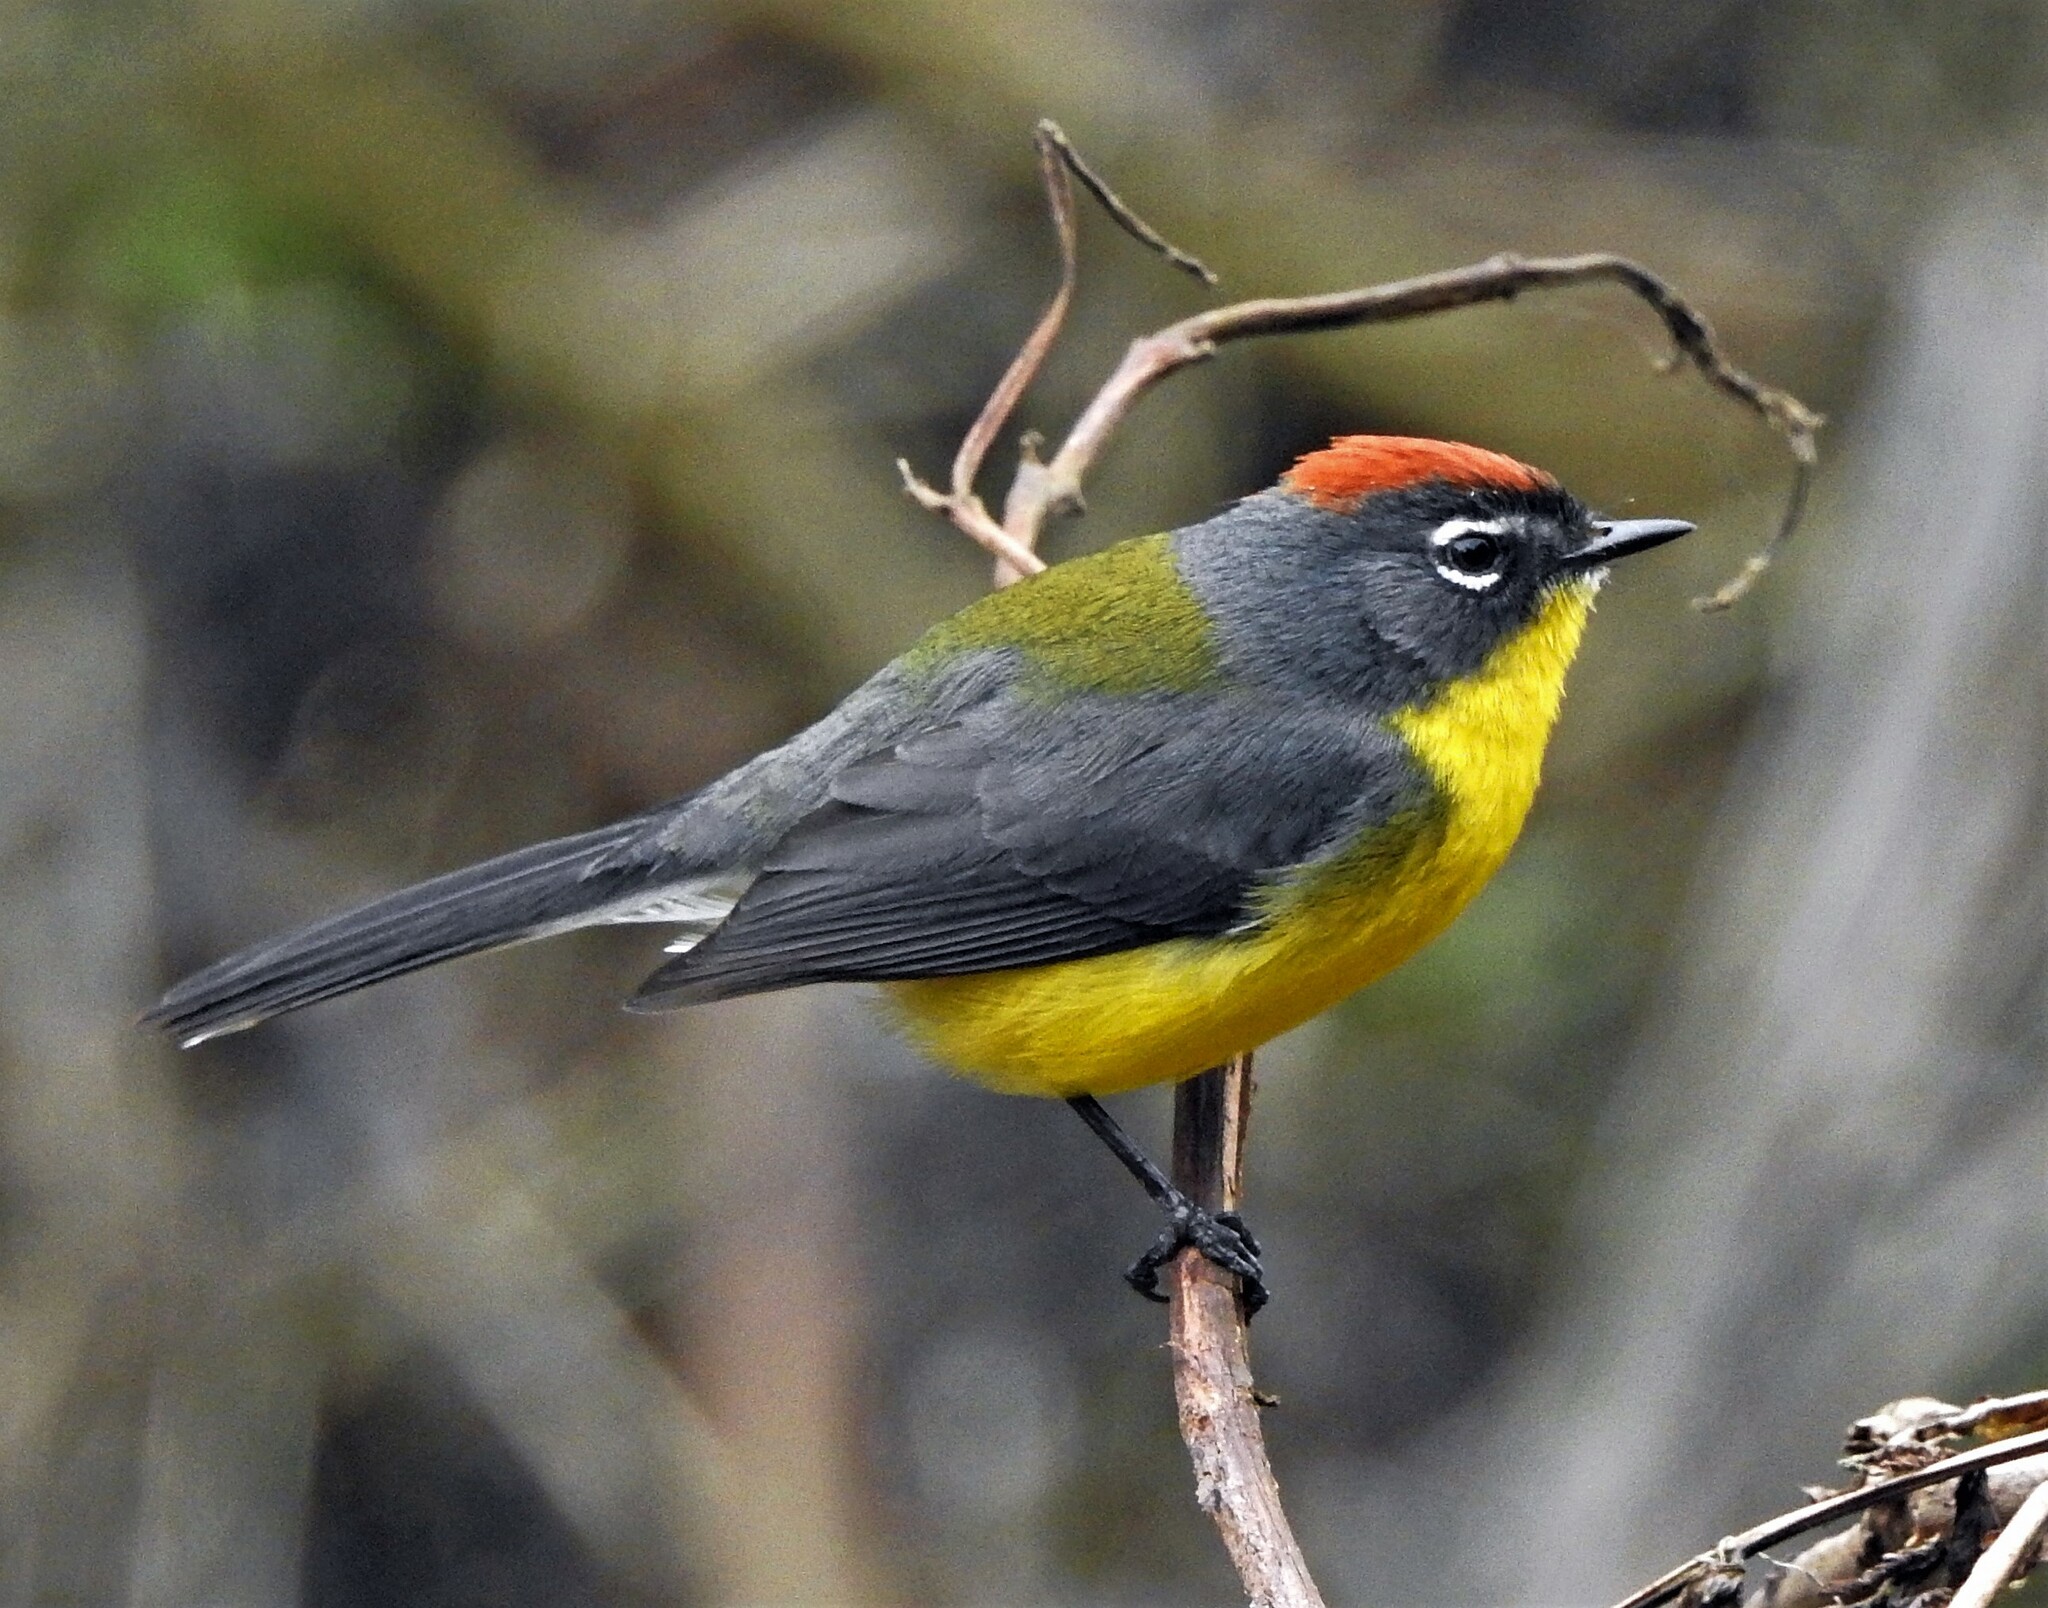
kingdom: Animalia
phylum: Chordata
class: Aves
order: Passeriformes
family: Parulidae
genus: Myioborus
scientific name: Myioborus brunniceps
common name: Brown-capped whitestart
